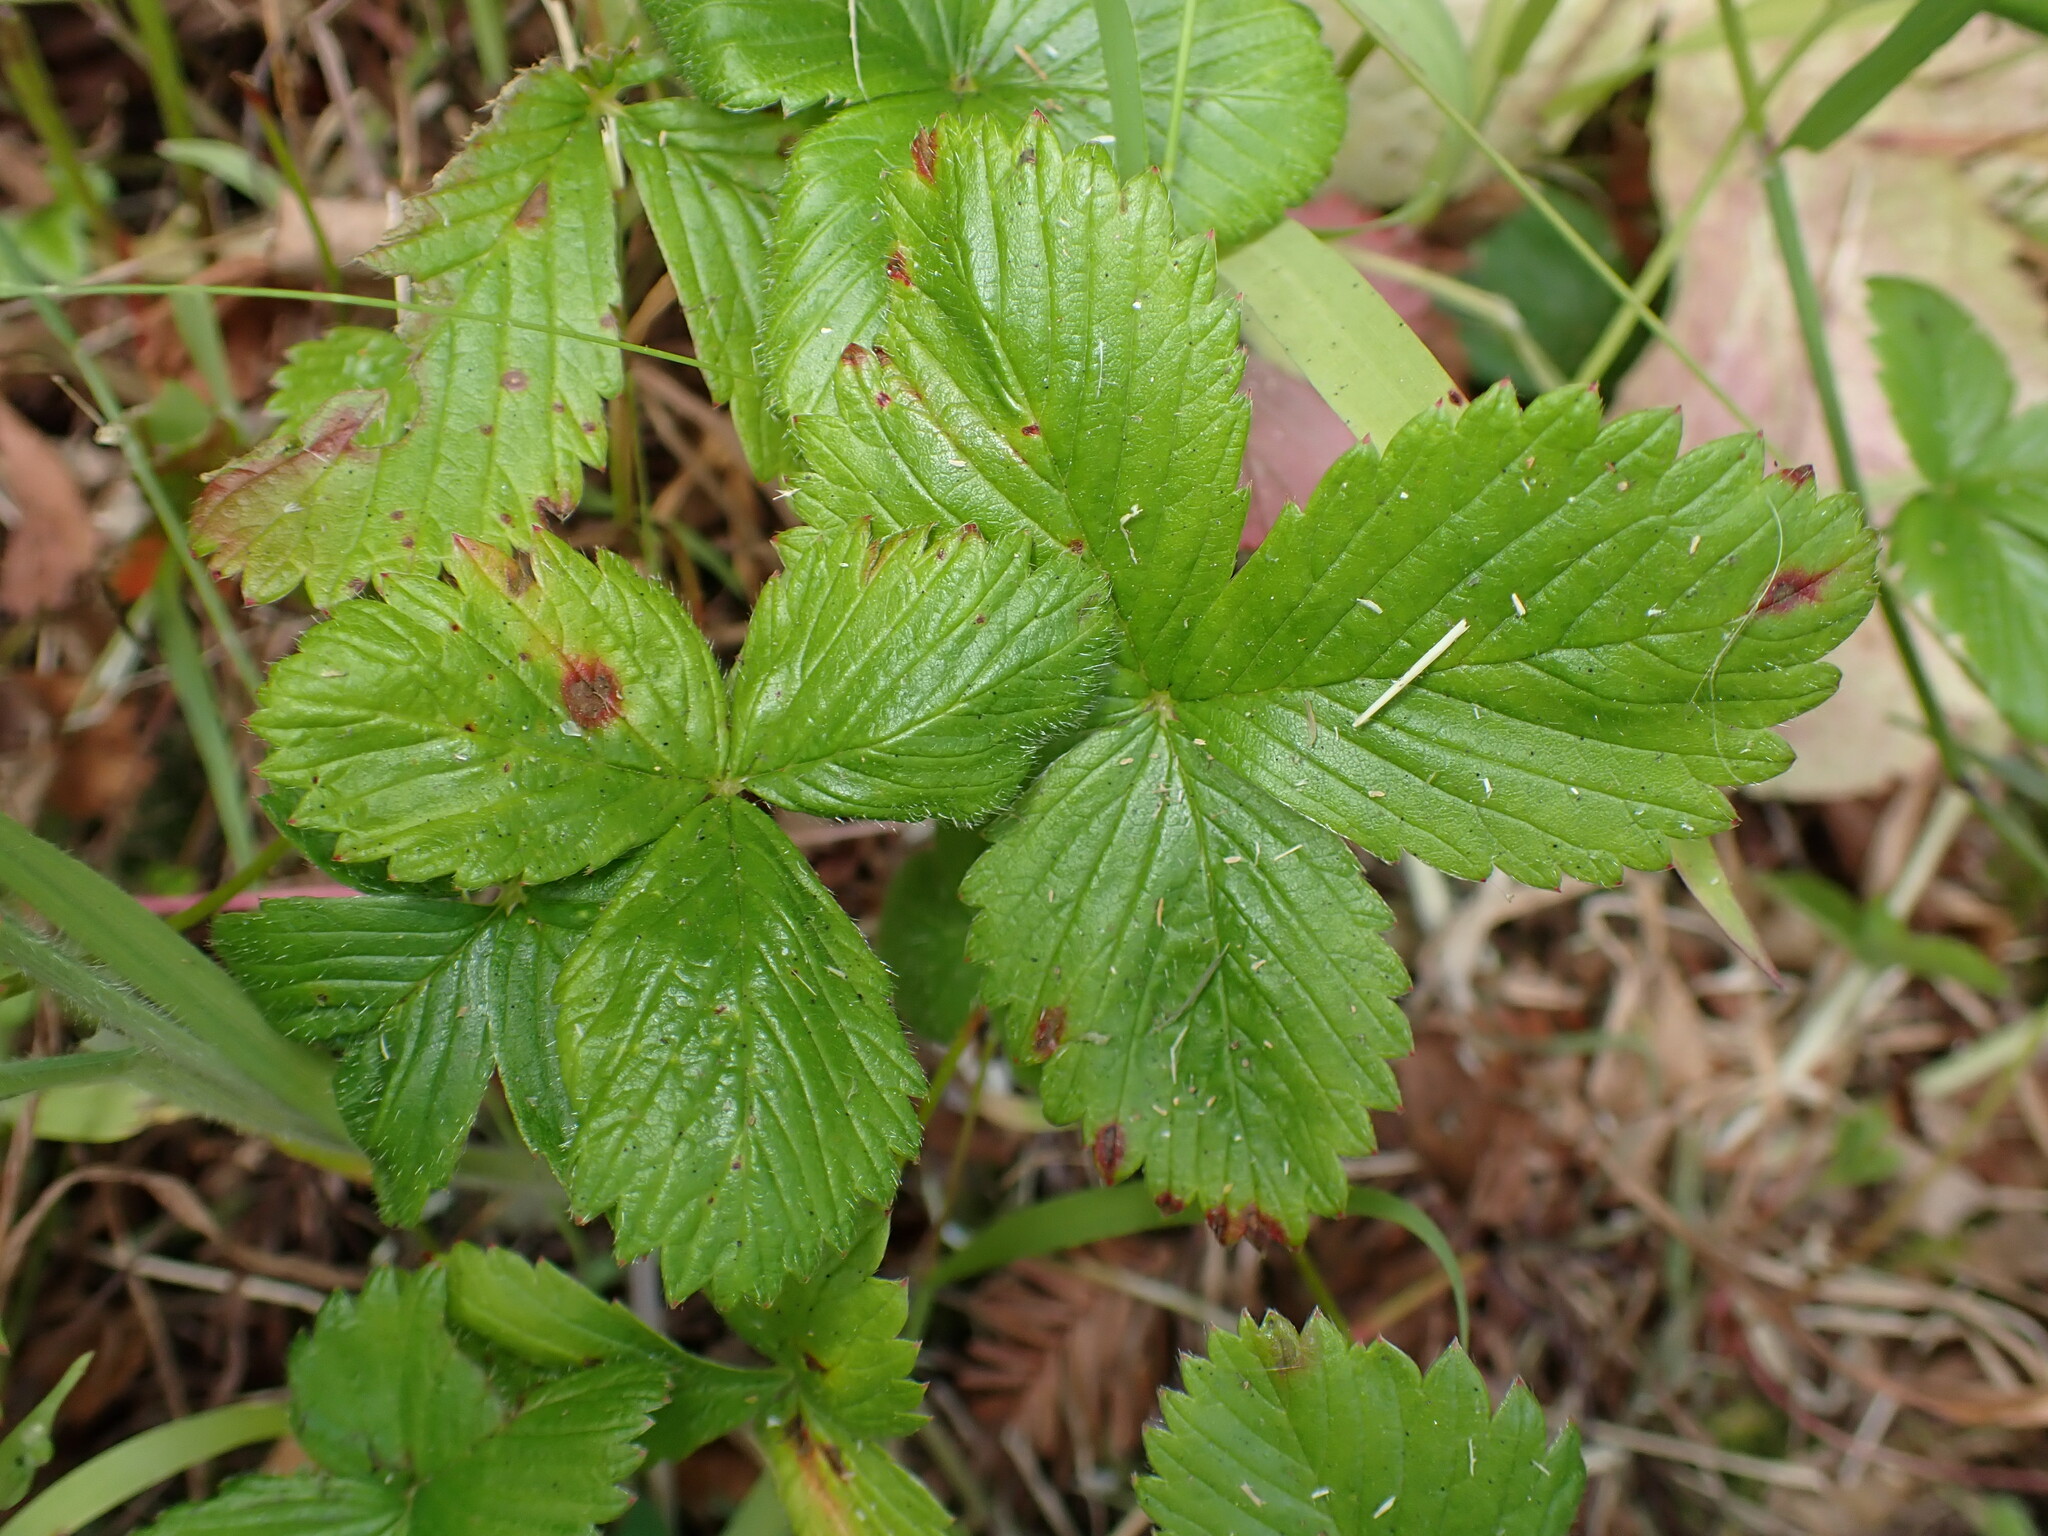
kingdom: Plantae
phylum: Tracheophyta
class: Magnoliopsida
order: Rosales
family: Rosaceae
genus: Fragaria
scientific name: Fragaria vesca
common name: Wild strawberry
